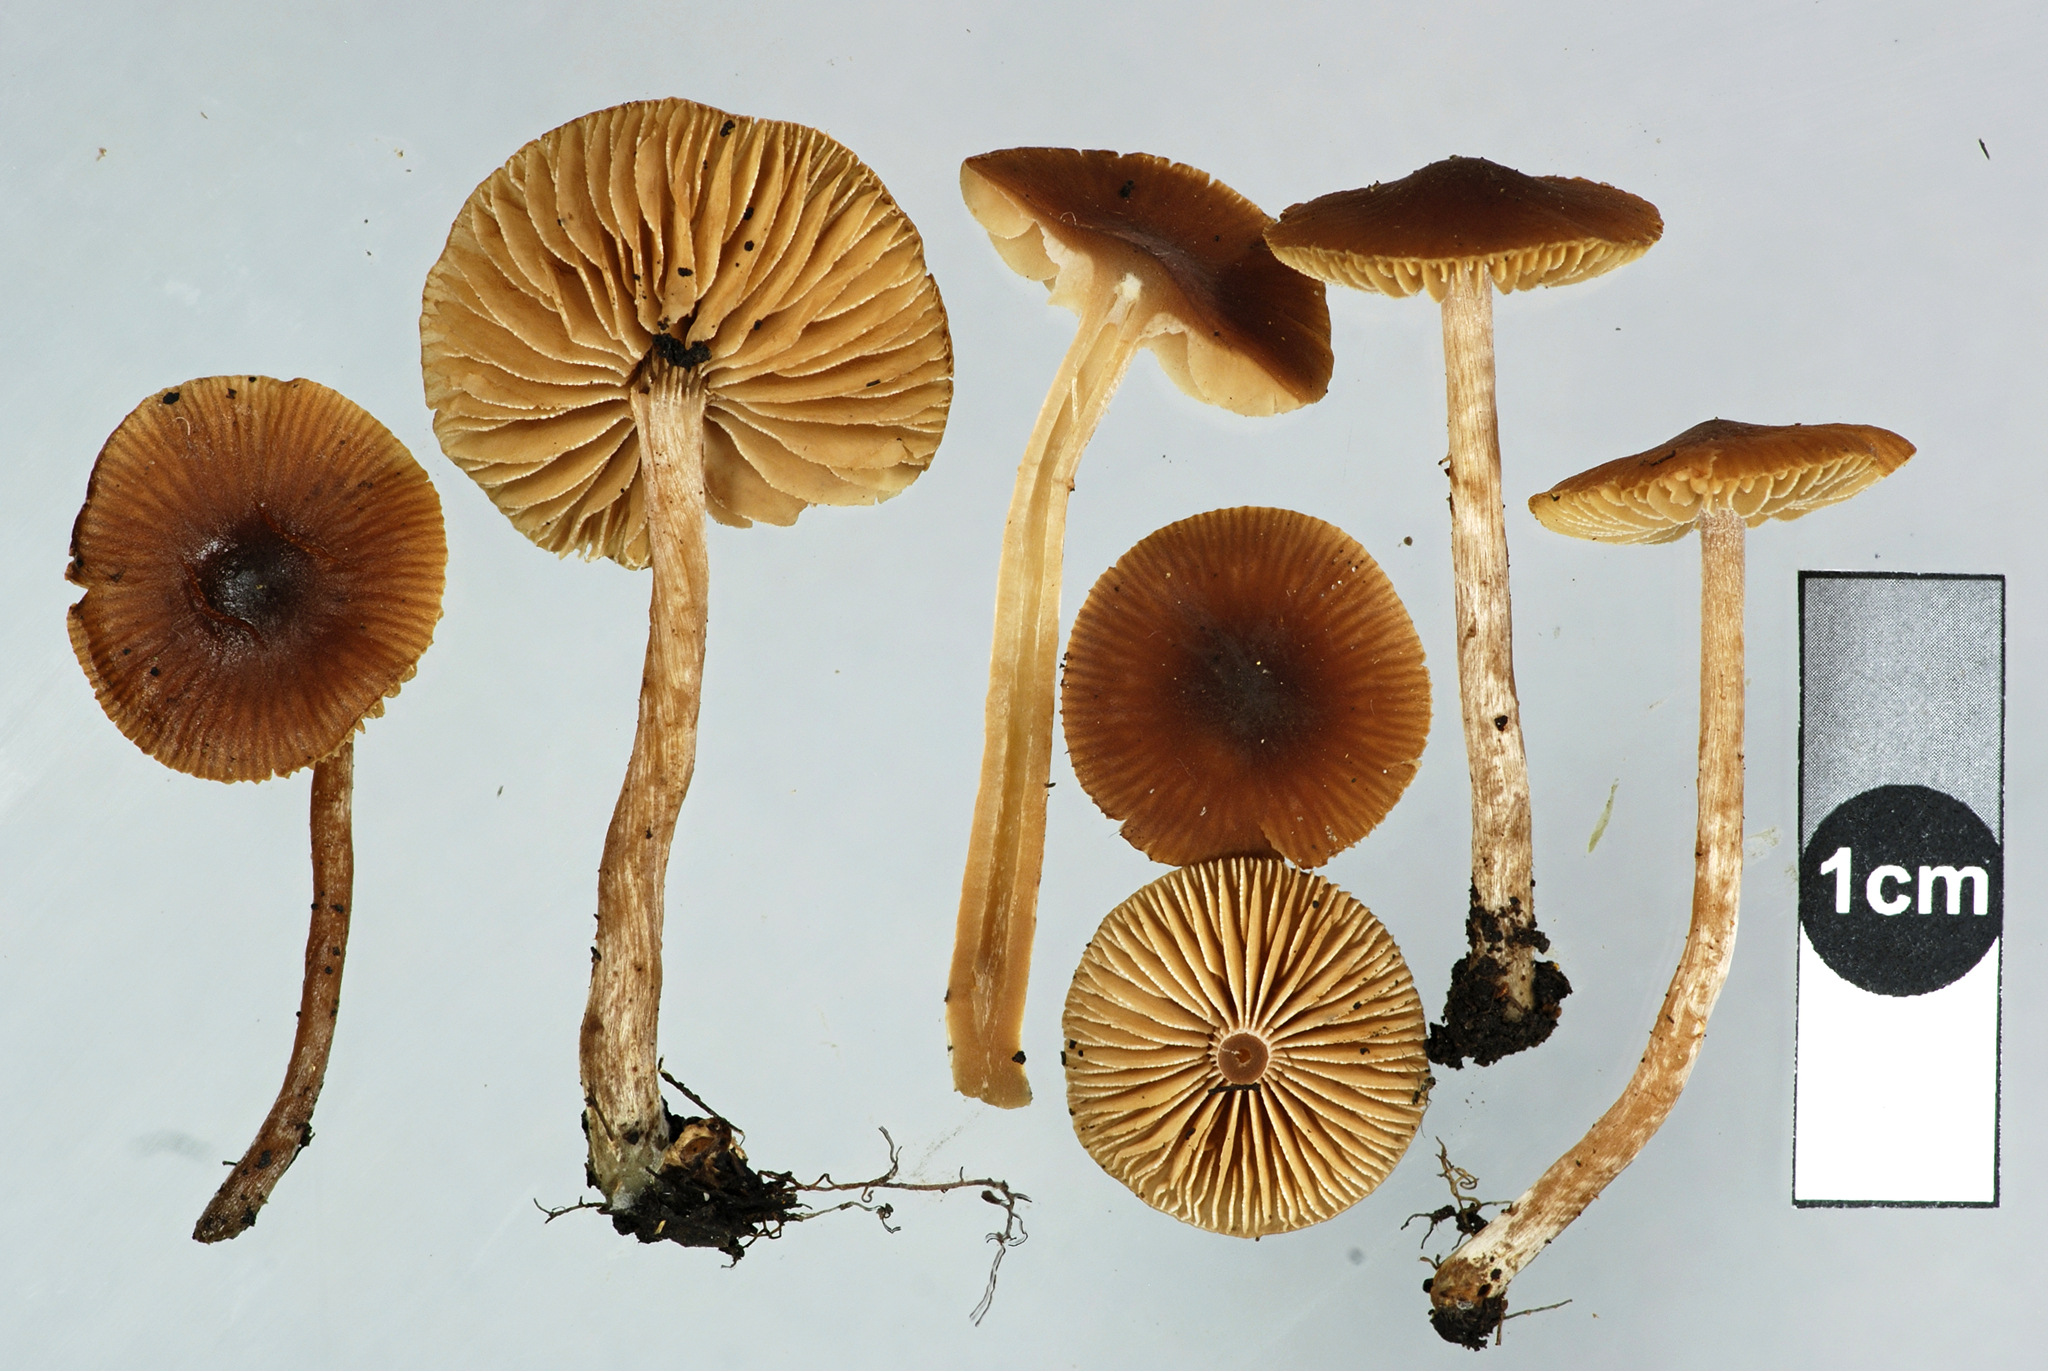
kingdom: Fungi
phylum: Basidiomycota
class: Agaricomycetes
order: Agaricales
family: Hymenogastraceae
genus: Naucoria
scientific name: Naucoria salicis
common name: Willow aldercap
